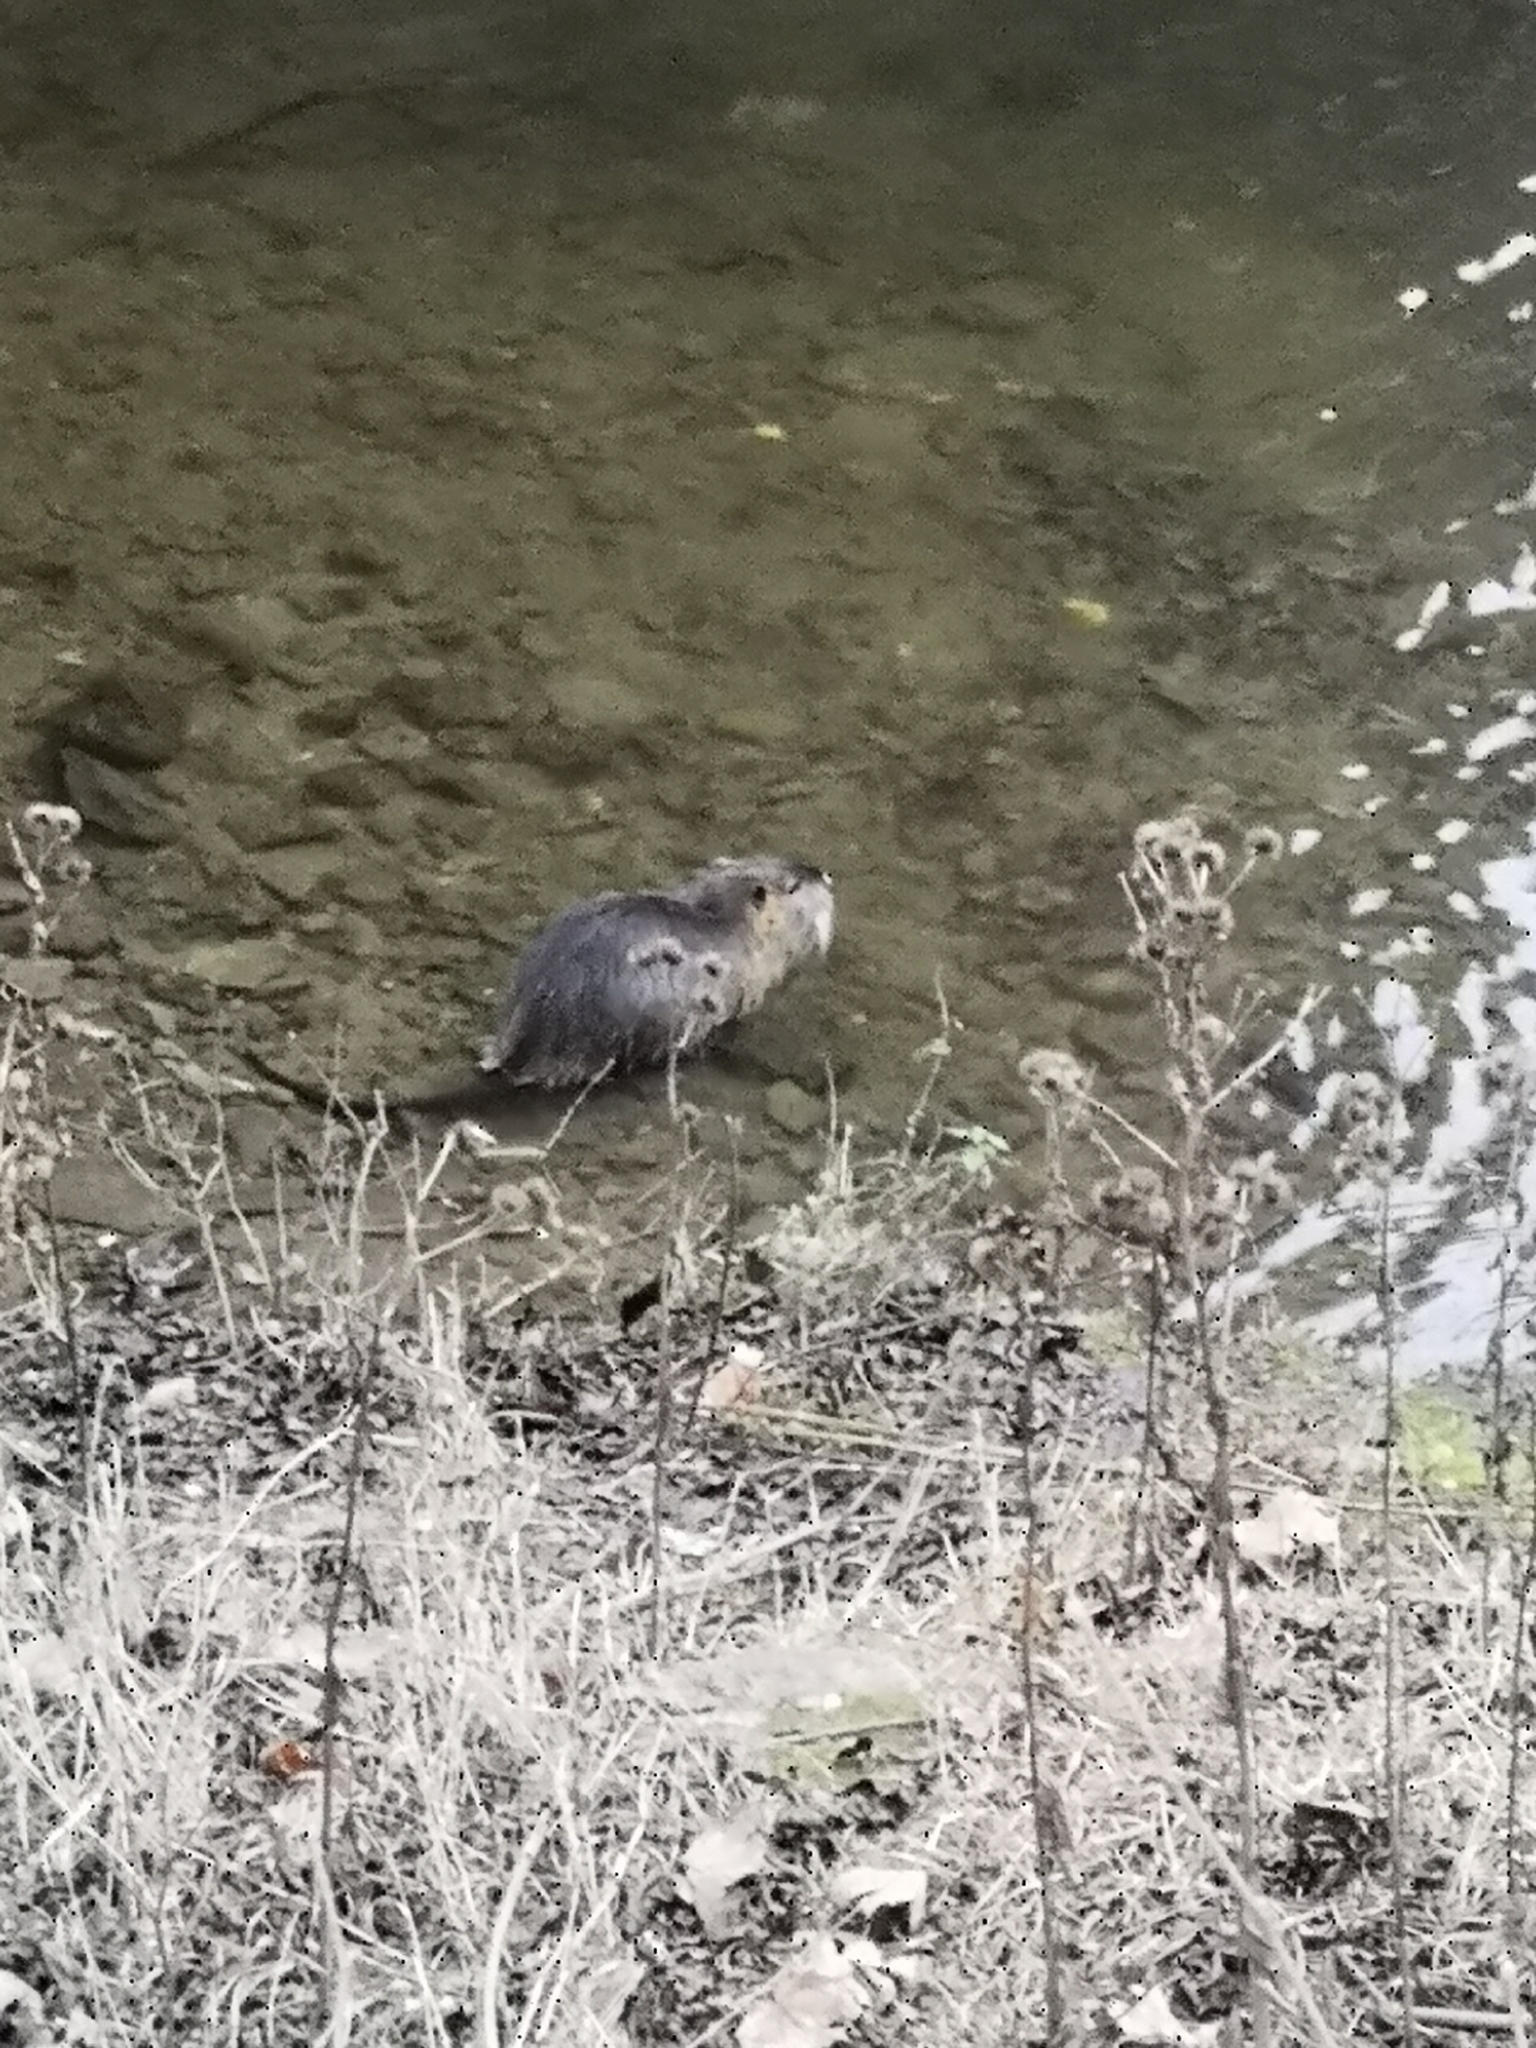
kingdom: Animalia
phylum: Chordata
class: Mammalia
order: Rodentia
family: Myocastoridae
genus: Myocastor
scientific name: Myocastor coypus
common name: Coypu
